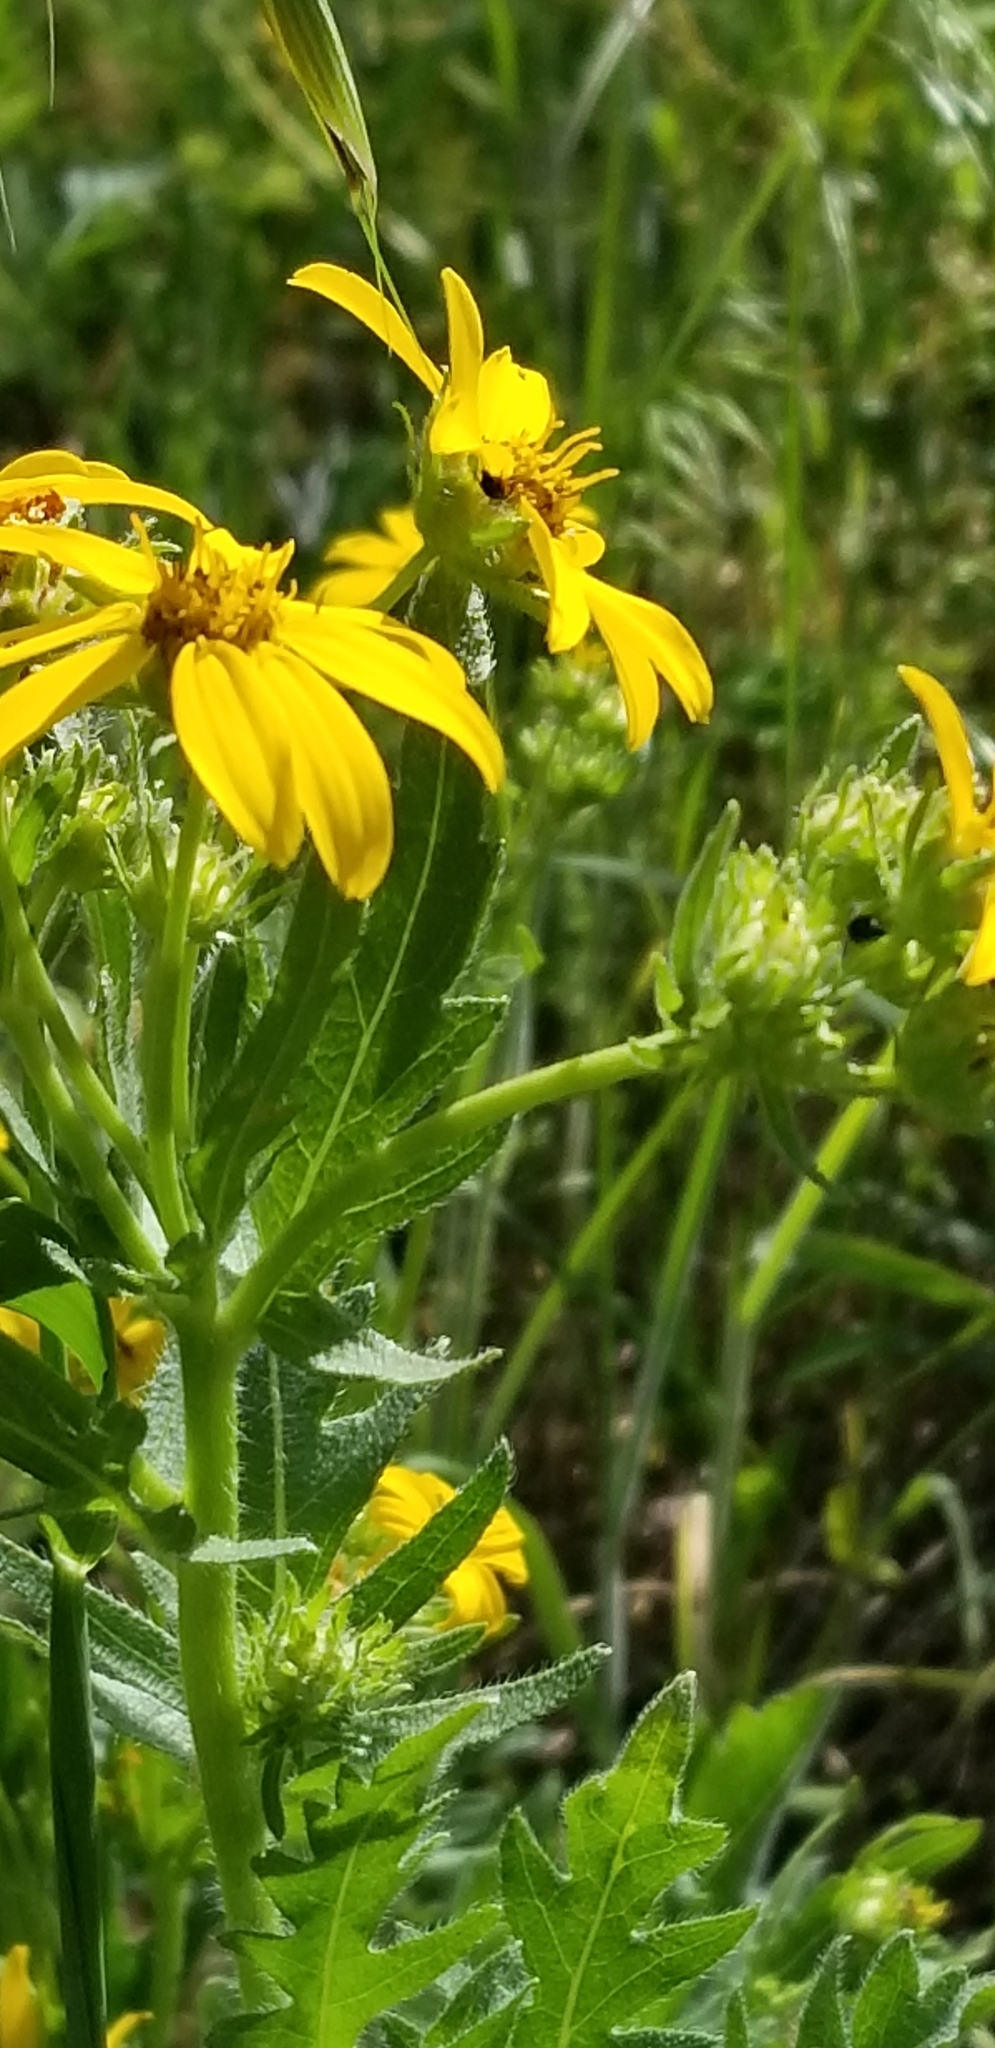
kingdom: Plantae
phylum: Tracheophyta
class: Magnoliopsida
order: Asterales
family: Asteraceae
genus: Engelmannia
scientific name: Engelmannia peristenia
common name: Engelmann's daisy
